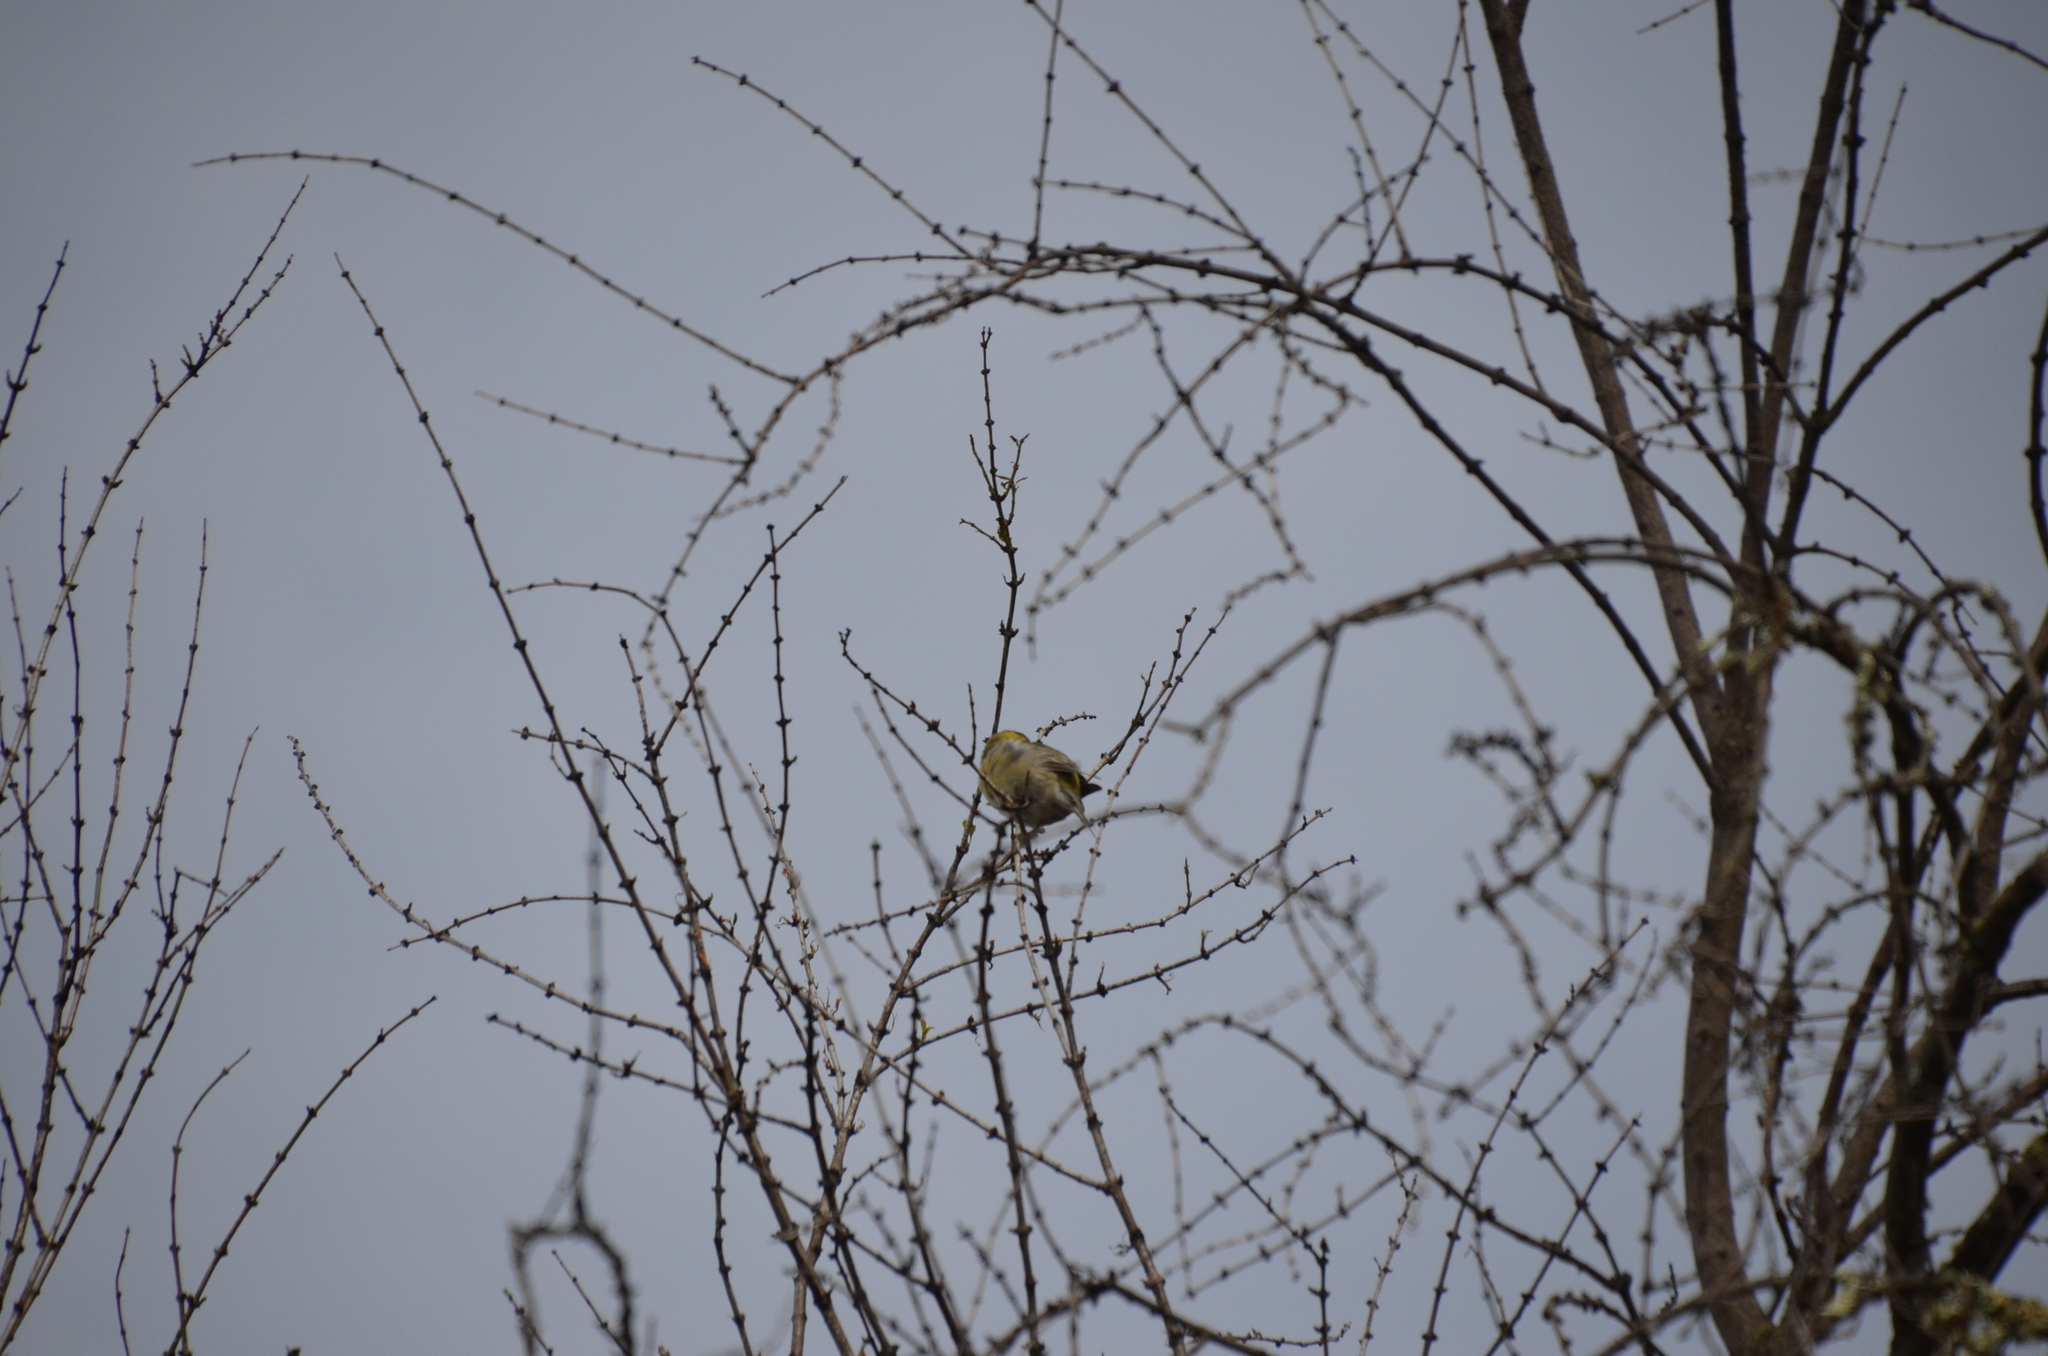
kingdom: Animalia
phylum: Chordata
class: Aves
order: Passeriformes
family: Fringillidae
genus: Spinus
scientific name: Spinus barbatus
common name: Black-chinned siskin
